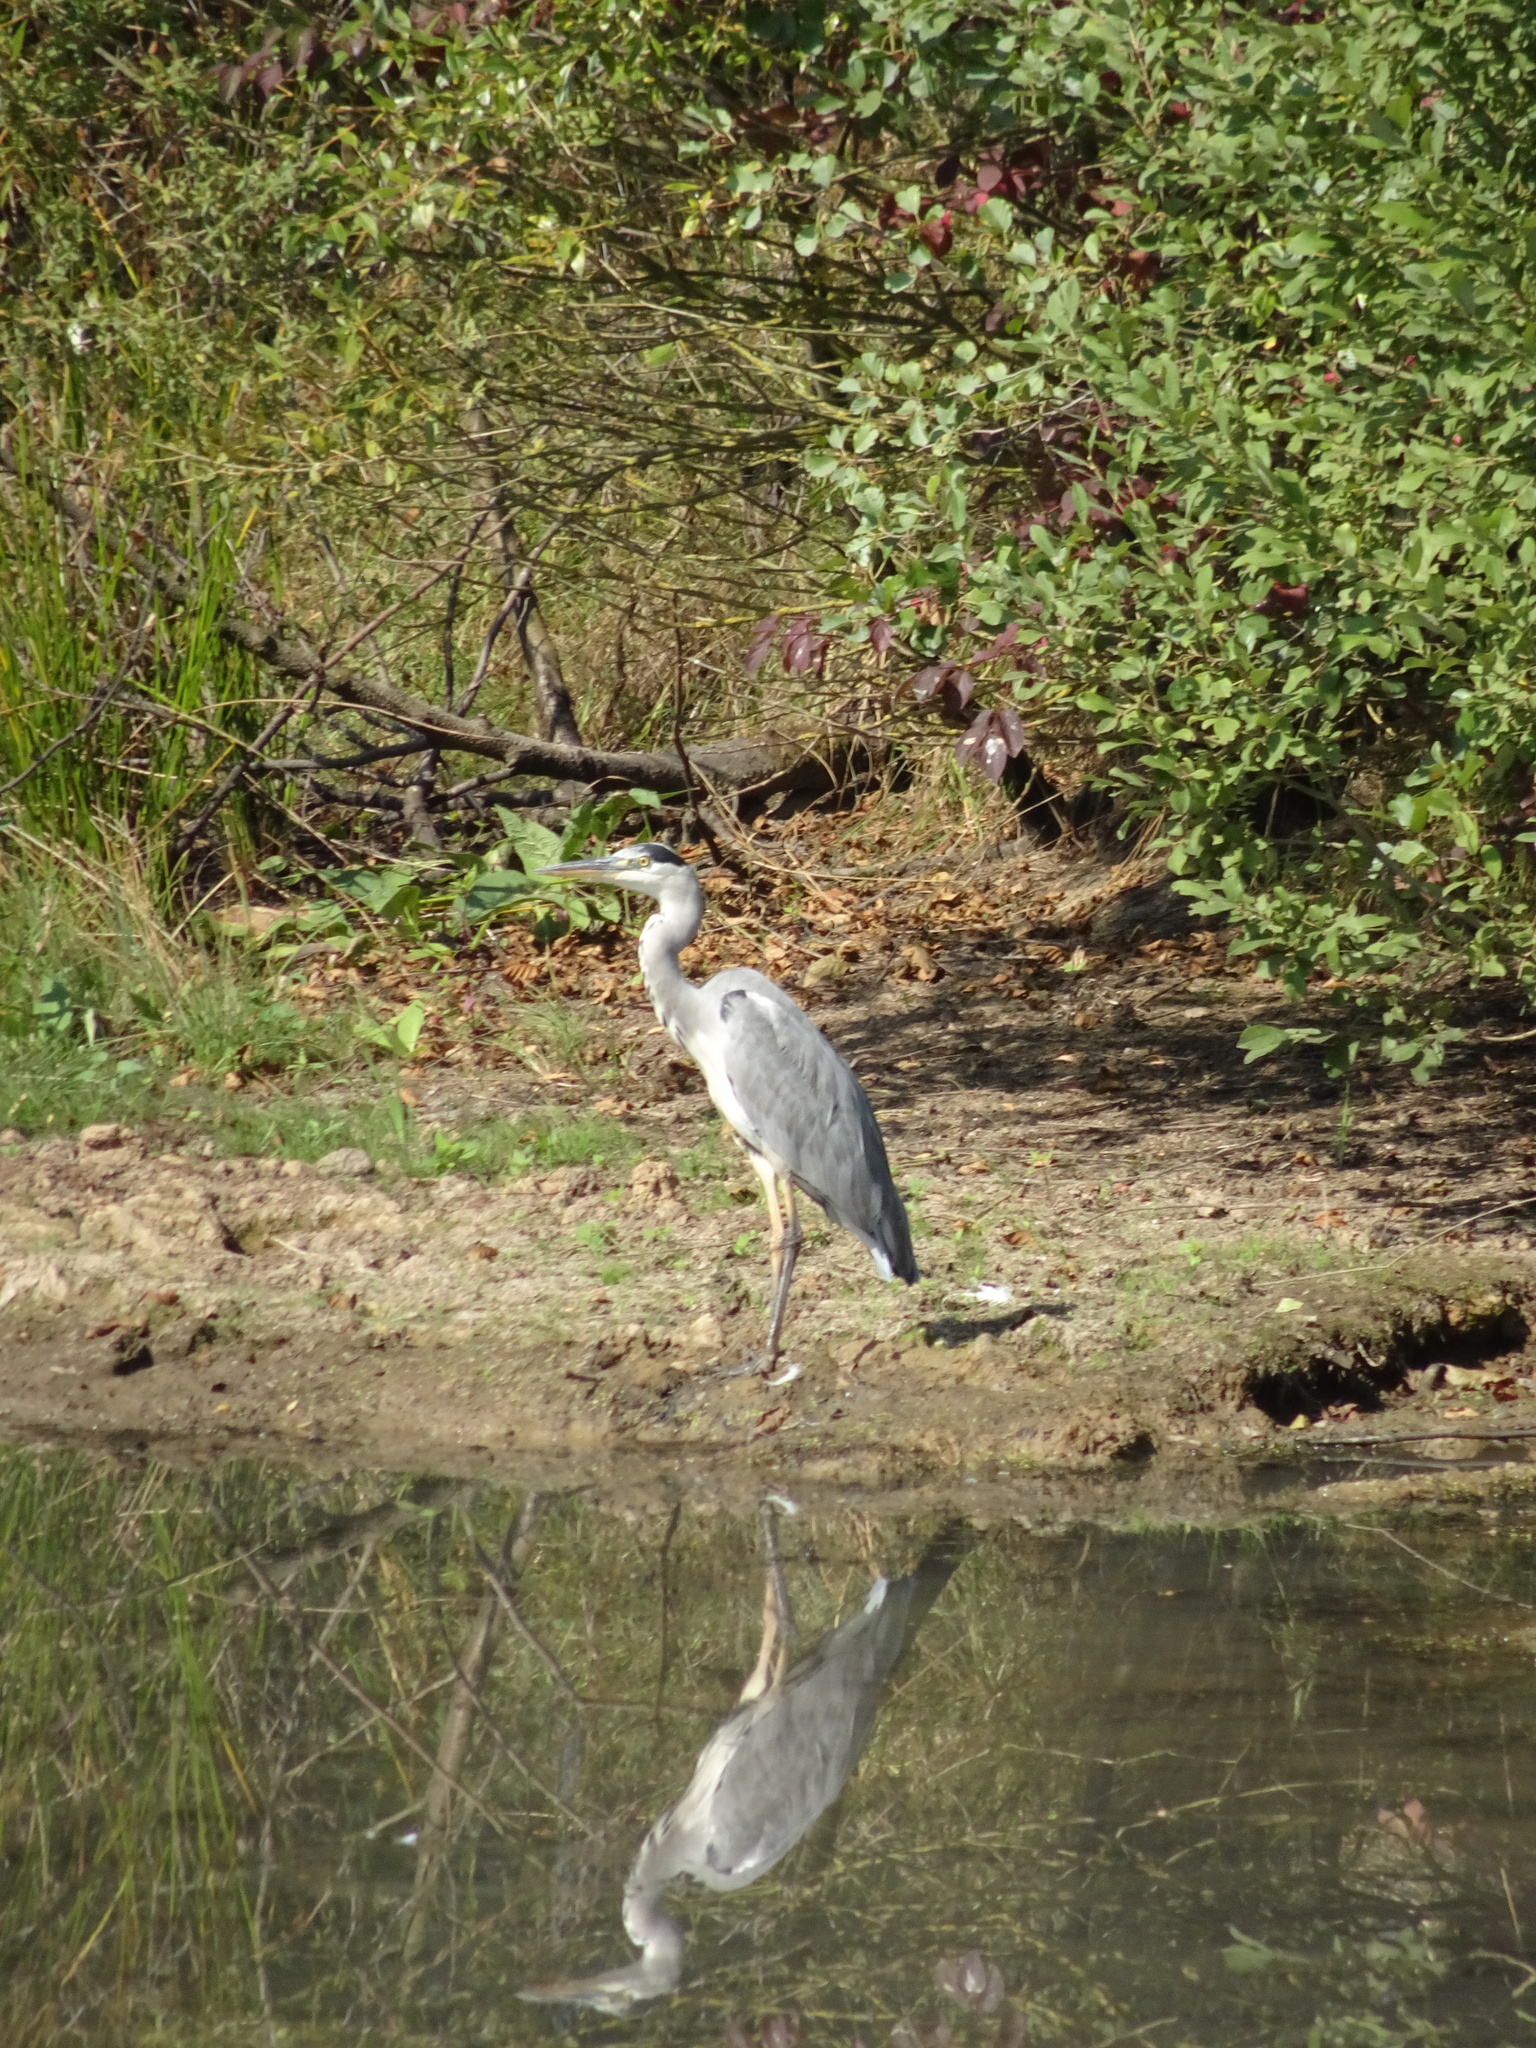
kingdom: Animalia
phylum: Chordata
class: Aves
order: Pelecaniformes
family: Ardeidae
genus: Ardea
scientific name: Ardea cinerea
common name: Grey heron
